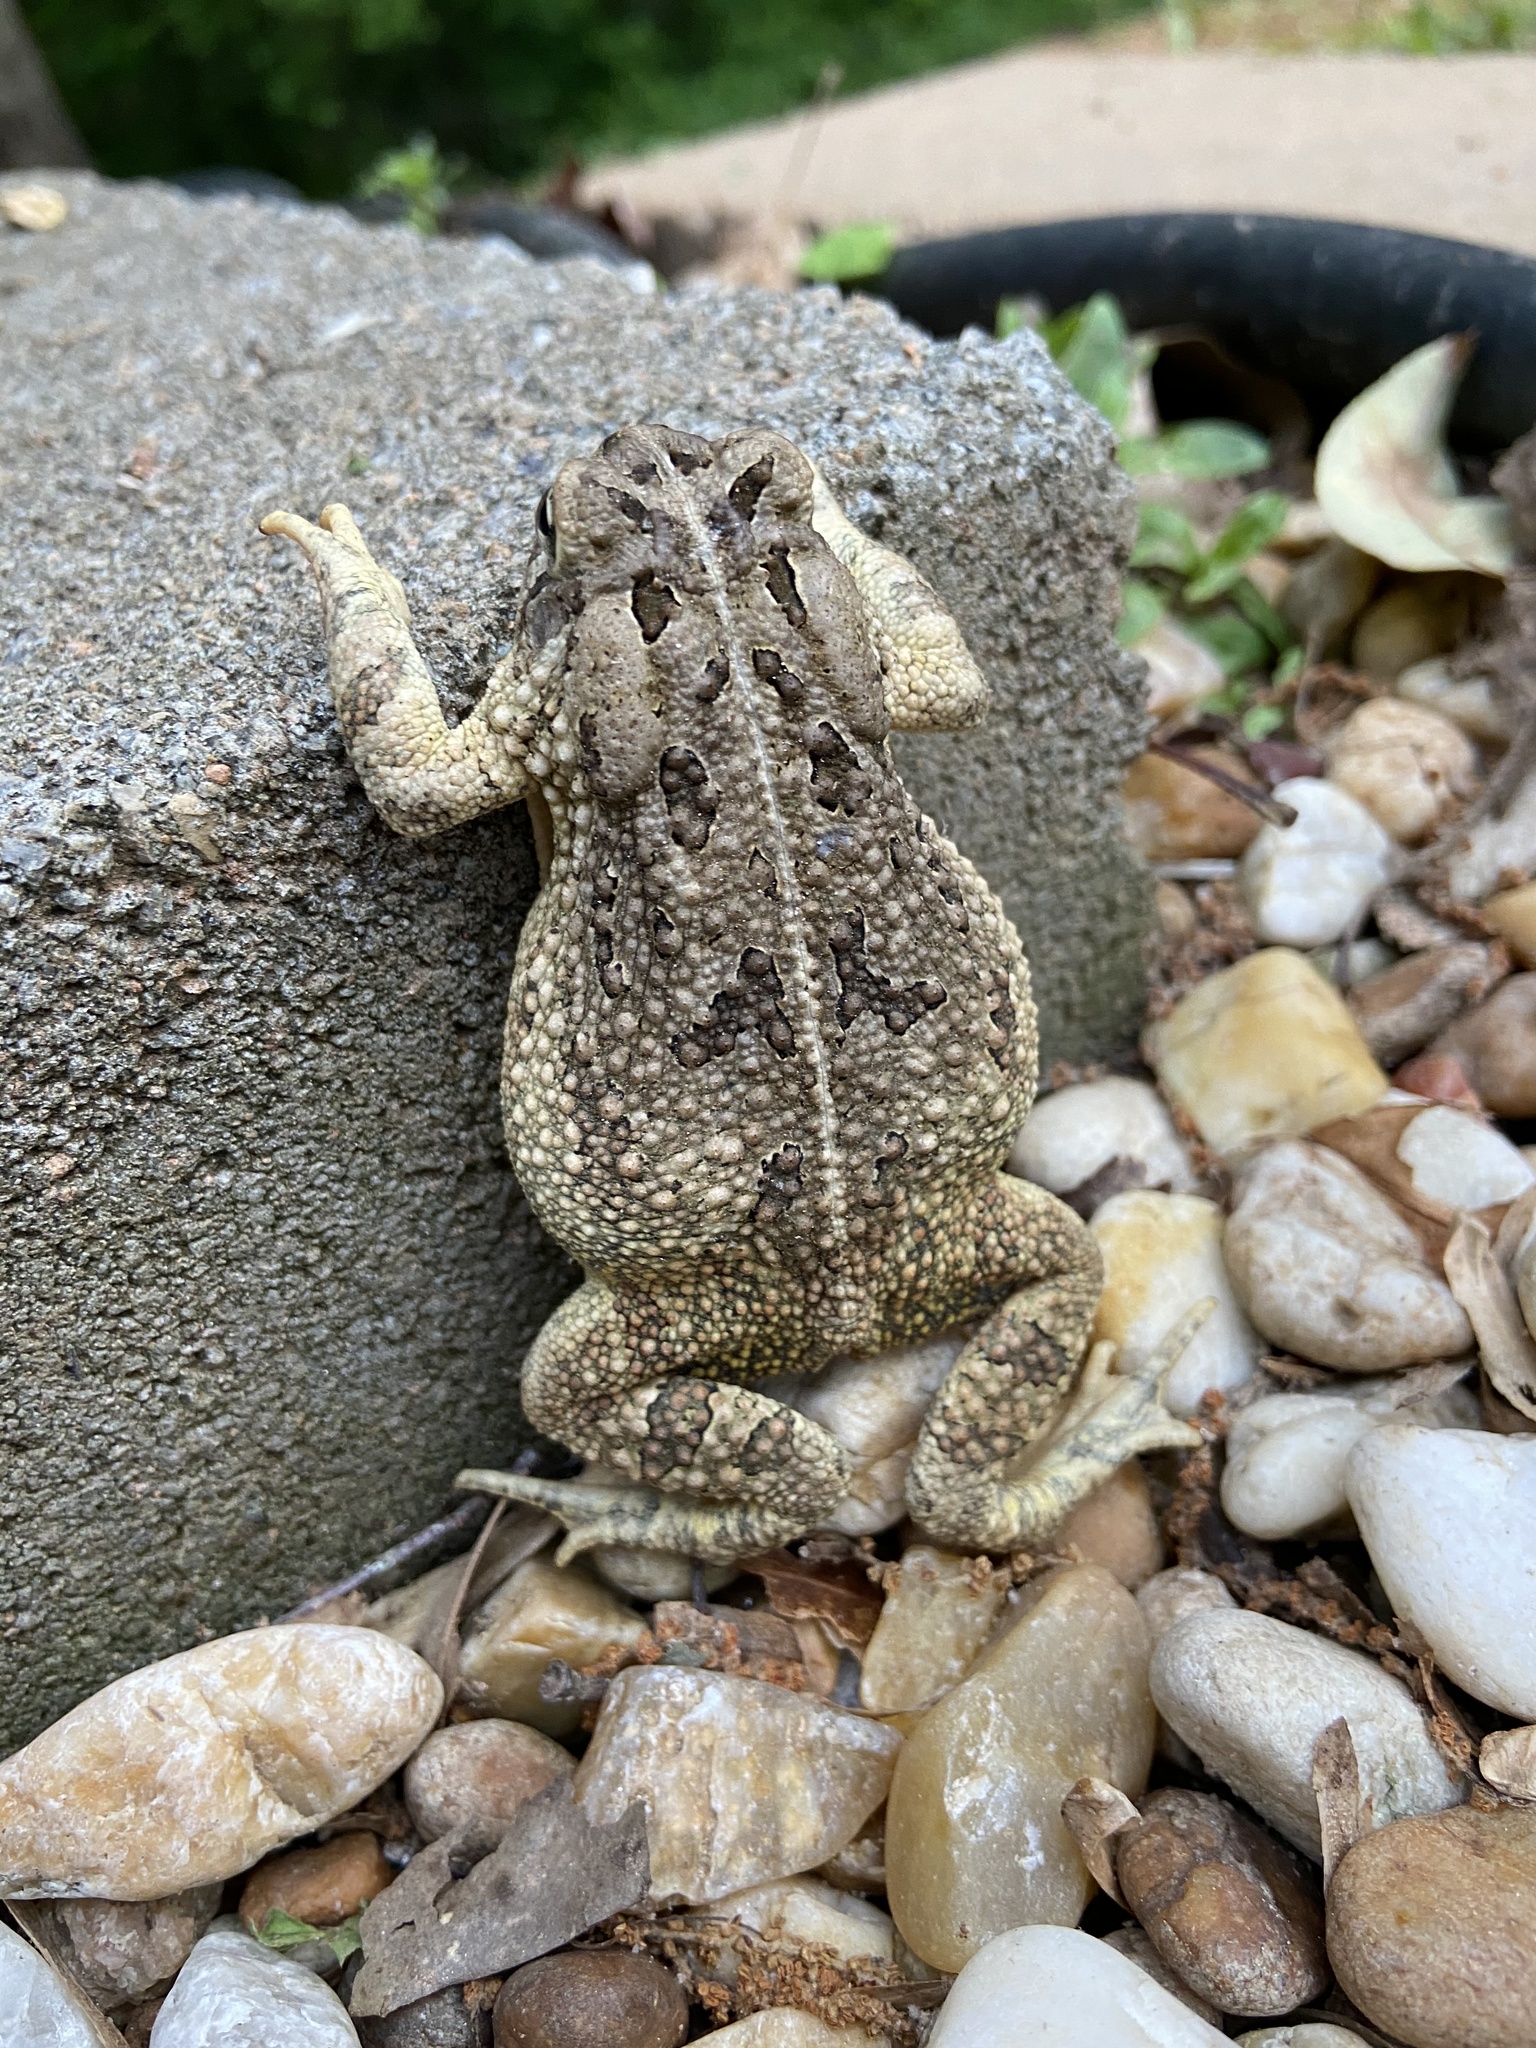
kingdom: Animalia
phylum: Chordata
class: Amphibia
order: Anura
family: Bufonidae
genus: Anaxyrus
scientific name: Anaxyrus fowleri
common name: Fowler's toad
